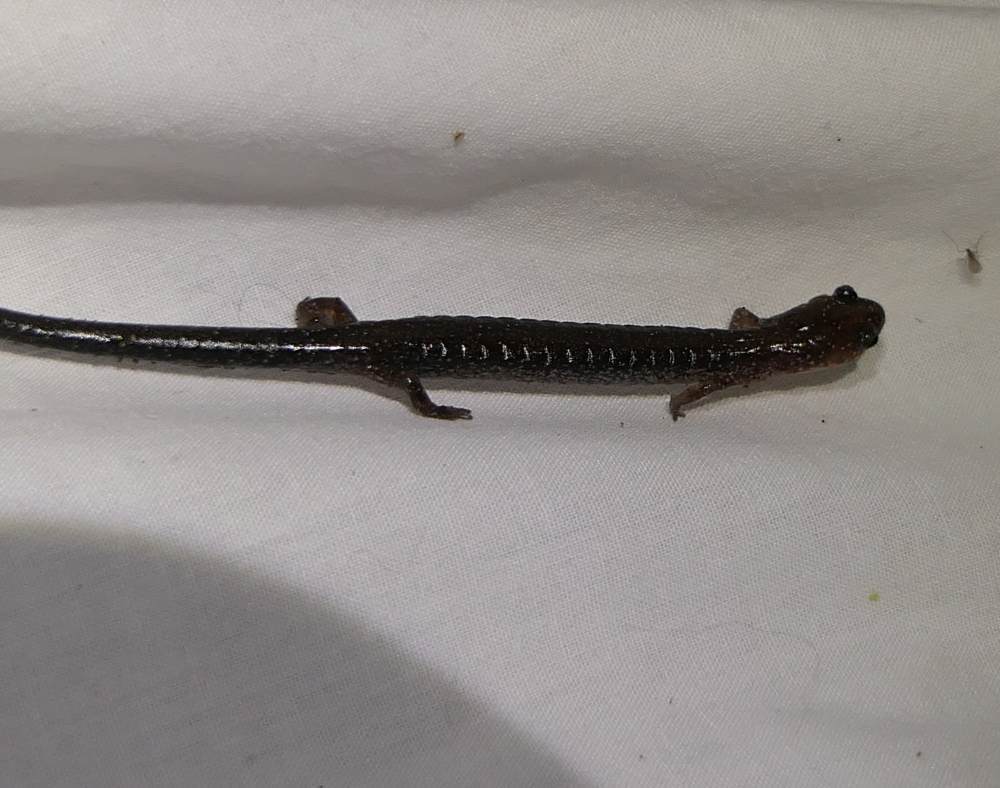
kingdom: Animalia
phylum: Chordata
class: Amphibia
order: Caudata
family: Plethodontidae
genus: Plethodon
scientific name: Plethodon cinereus
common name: Redback salamander
